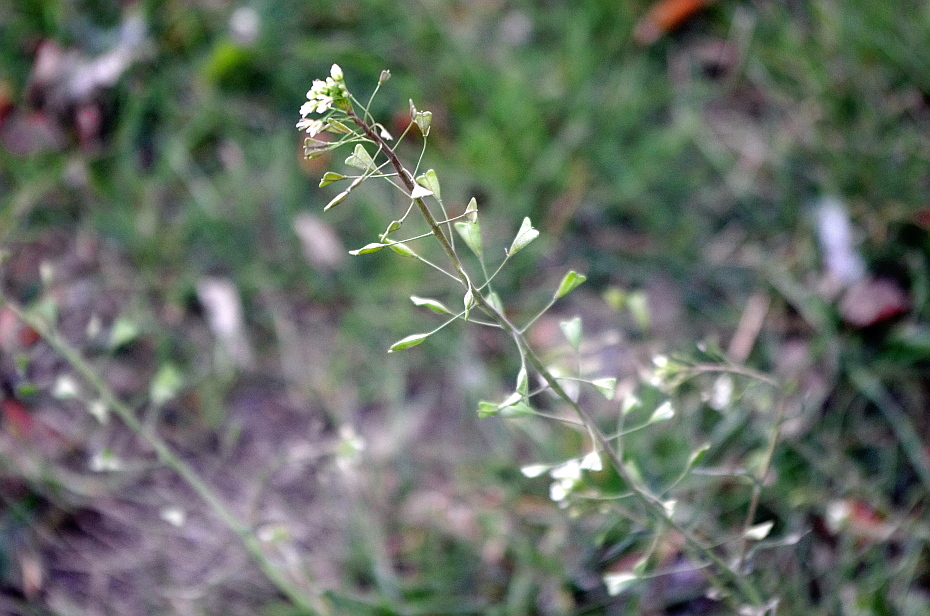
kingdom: Plantae
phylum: Tracheophyta
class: Magnoliopsida
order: Brassicales
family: Brassicaceae
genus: Capsella
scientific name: Capsella bursa-pastoris
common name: Shepherd's purse
